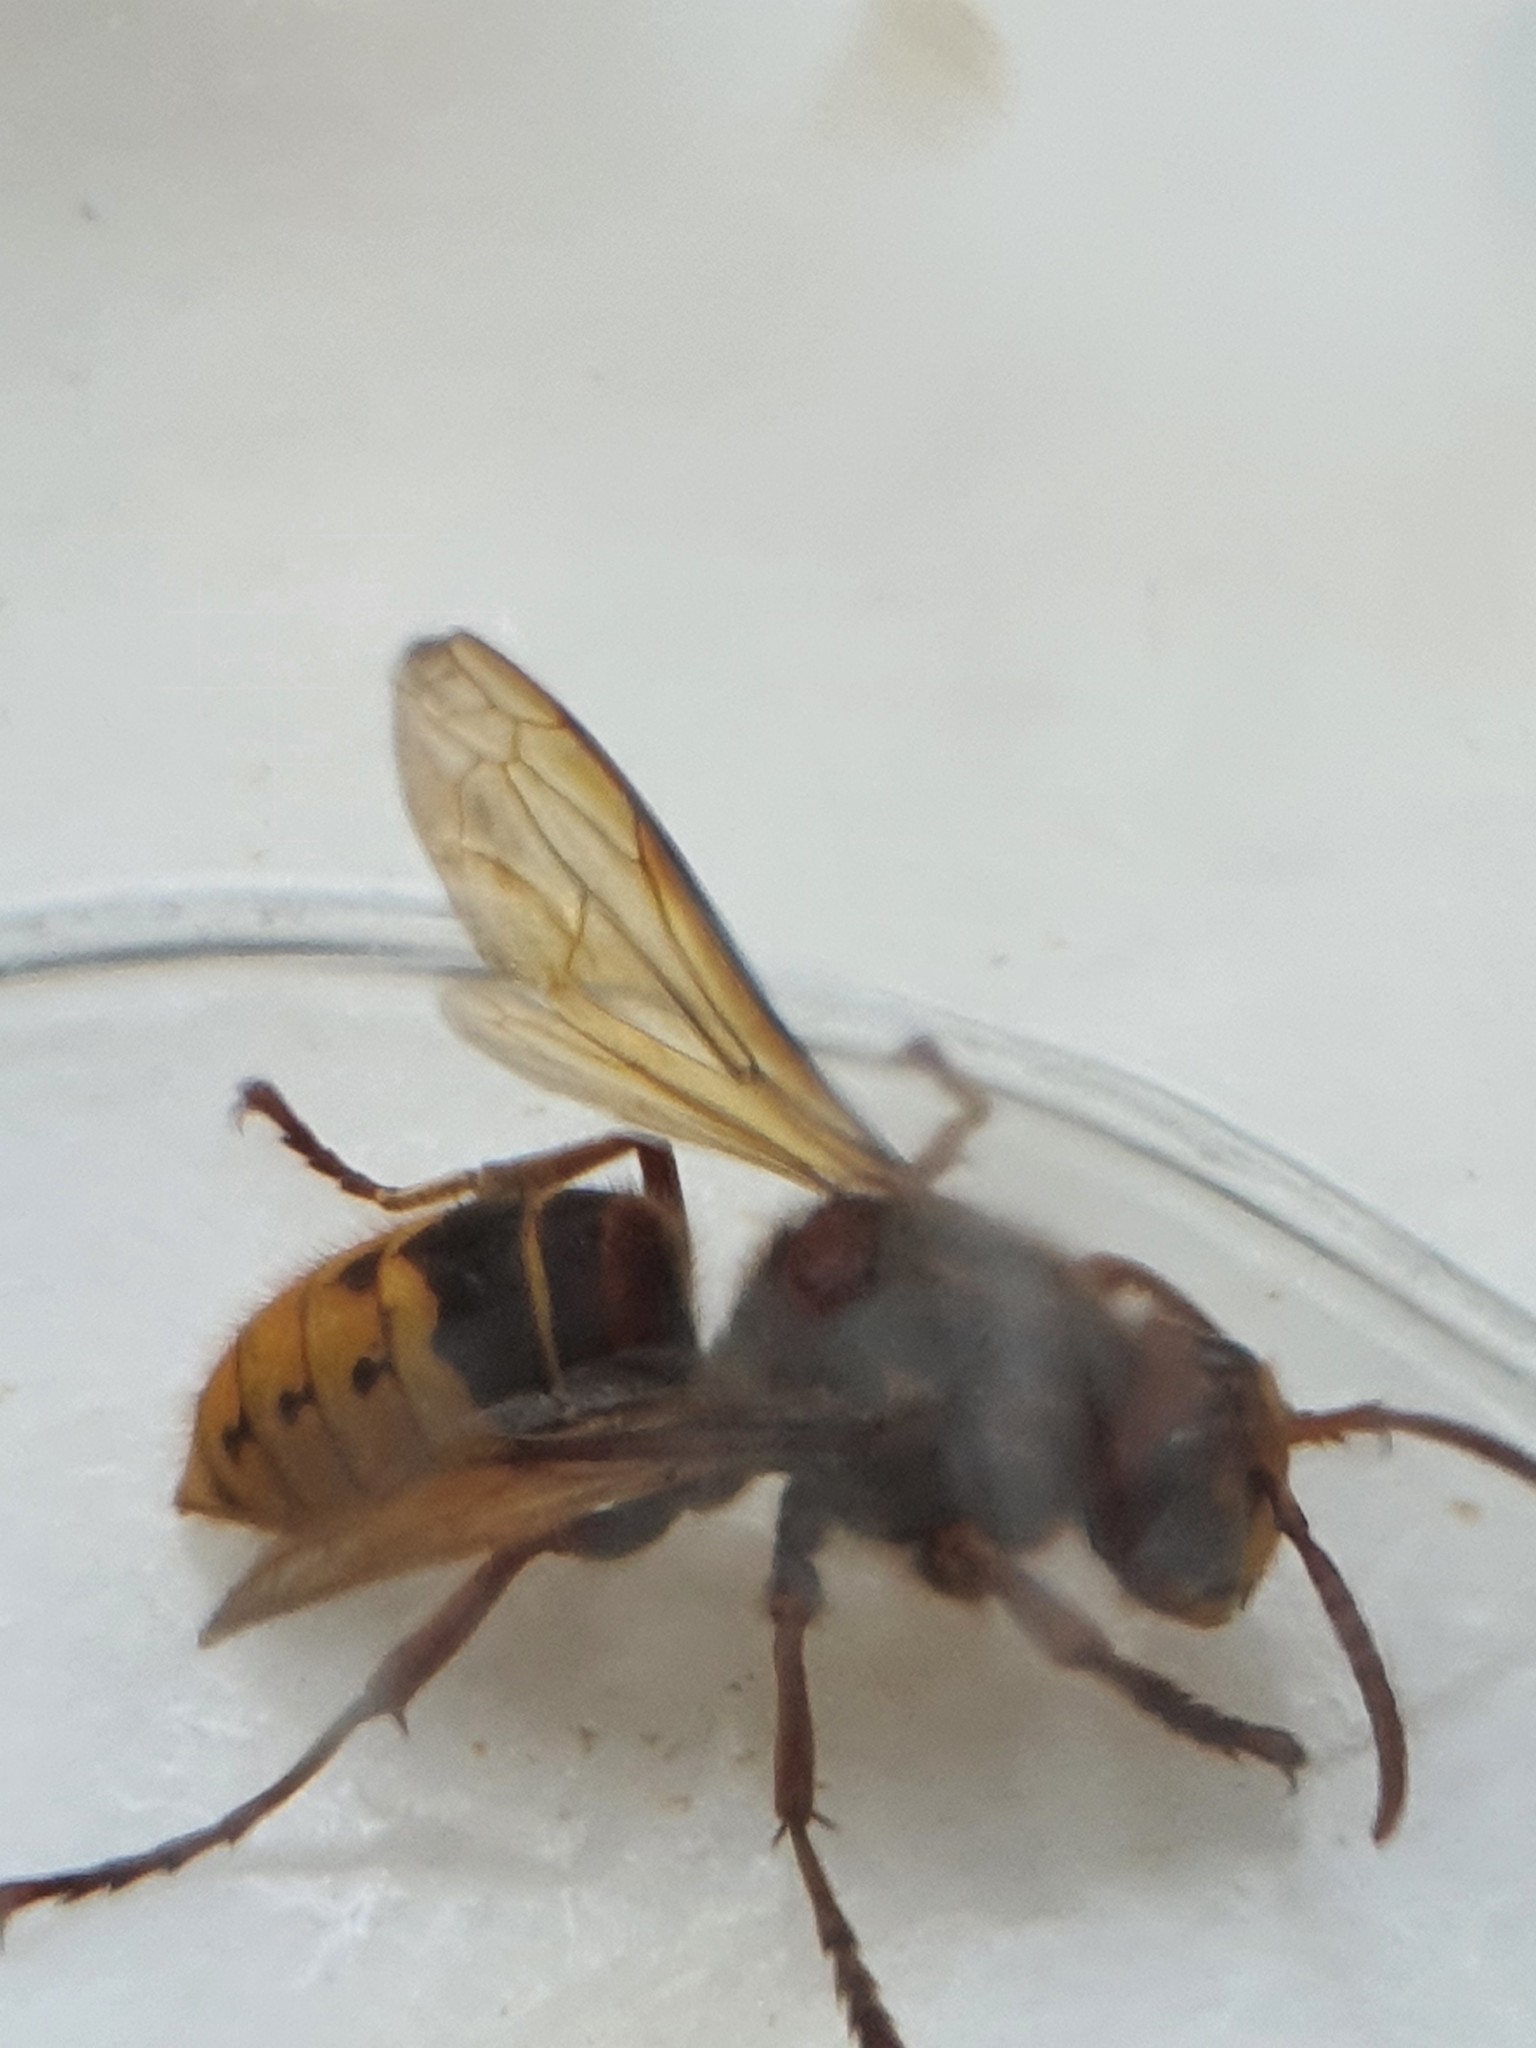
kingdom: Animalia
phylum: Arthropoda
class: Insecta
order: Hymenoptera
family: Vespidae
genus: Vespa
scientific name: Vespa crabro
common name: Hornet
